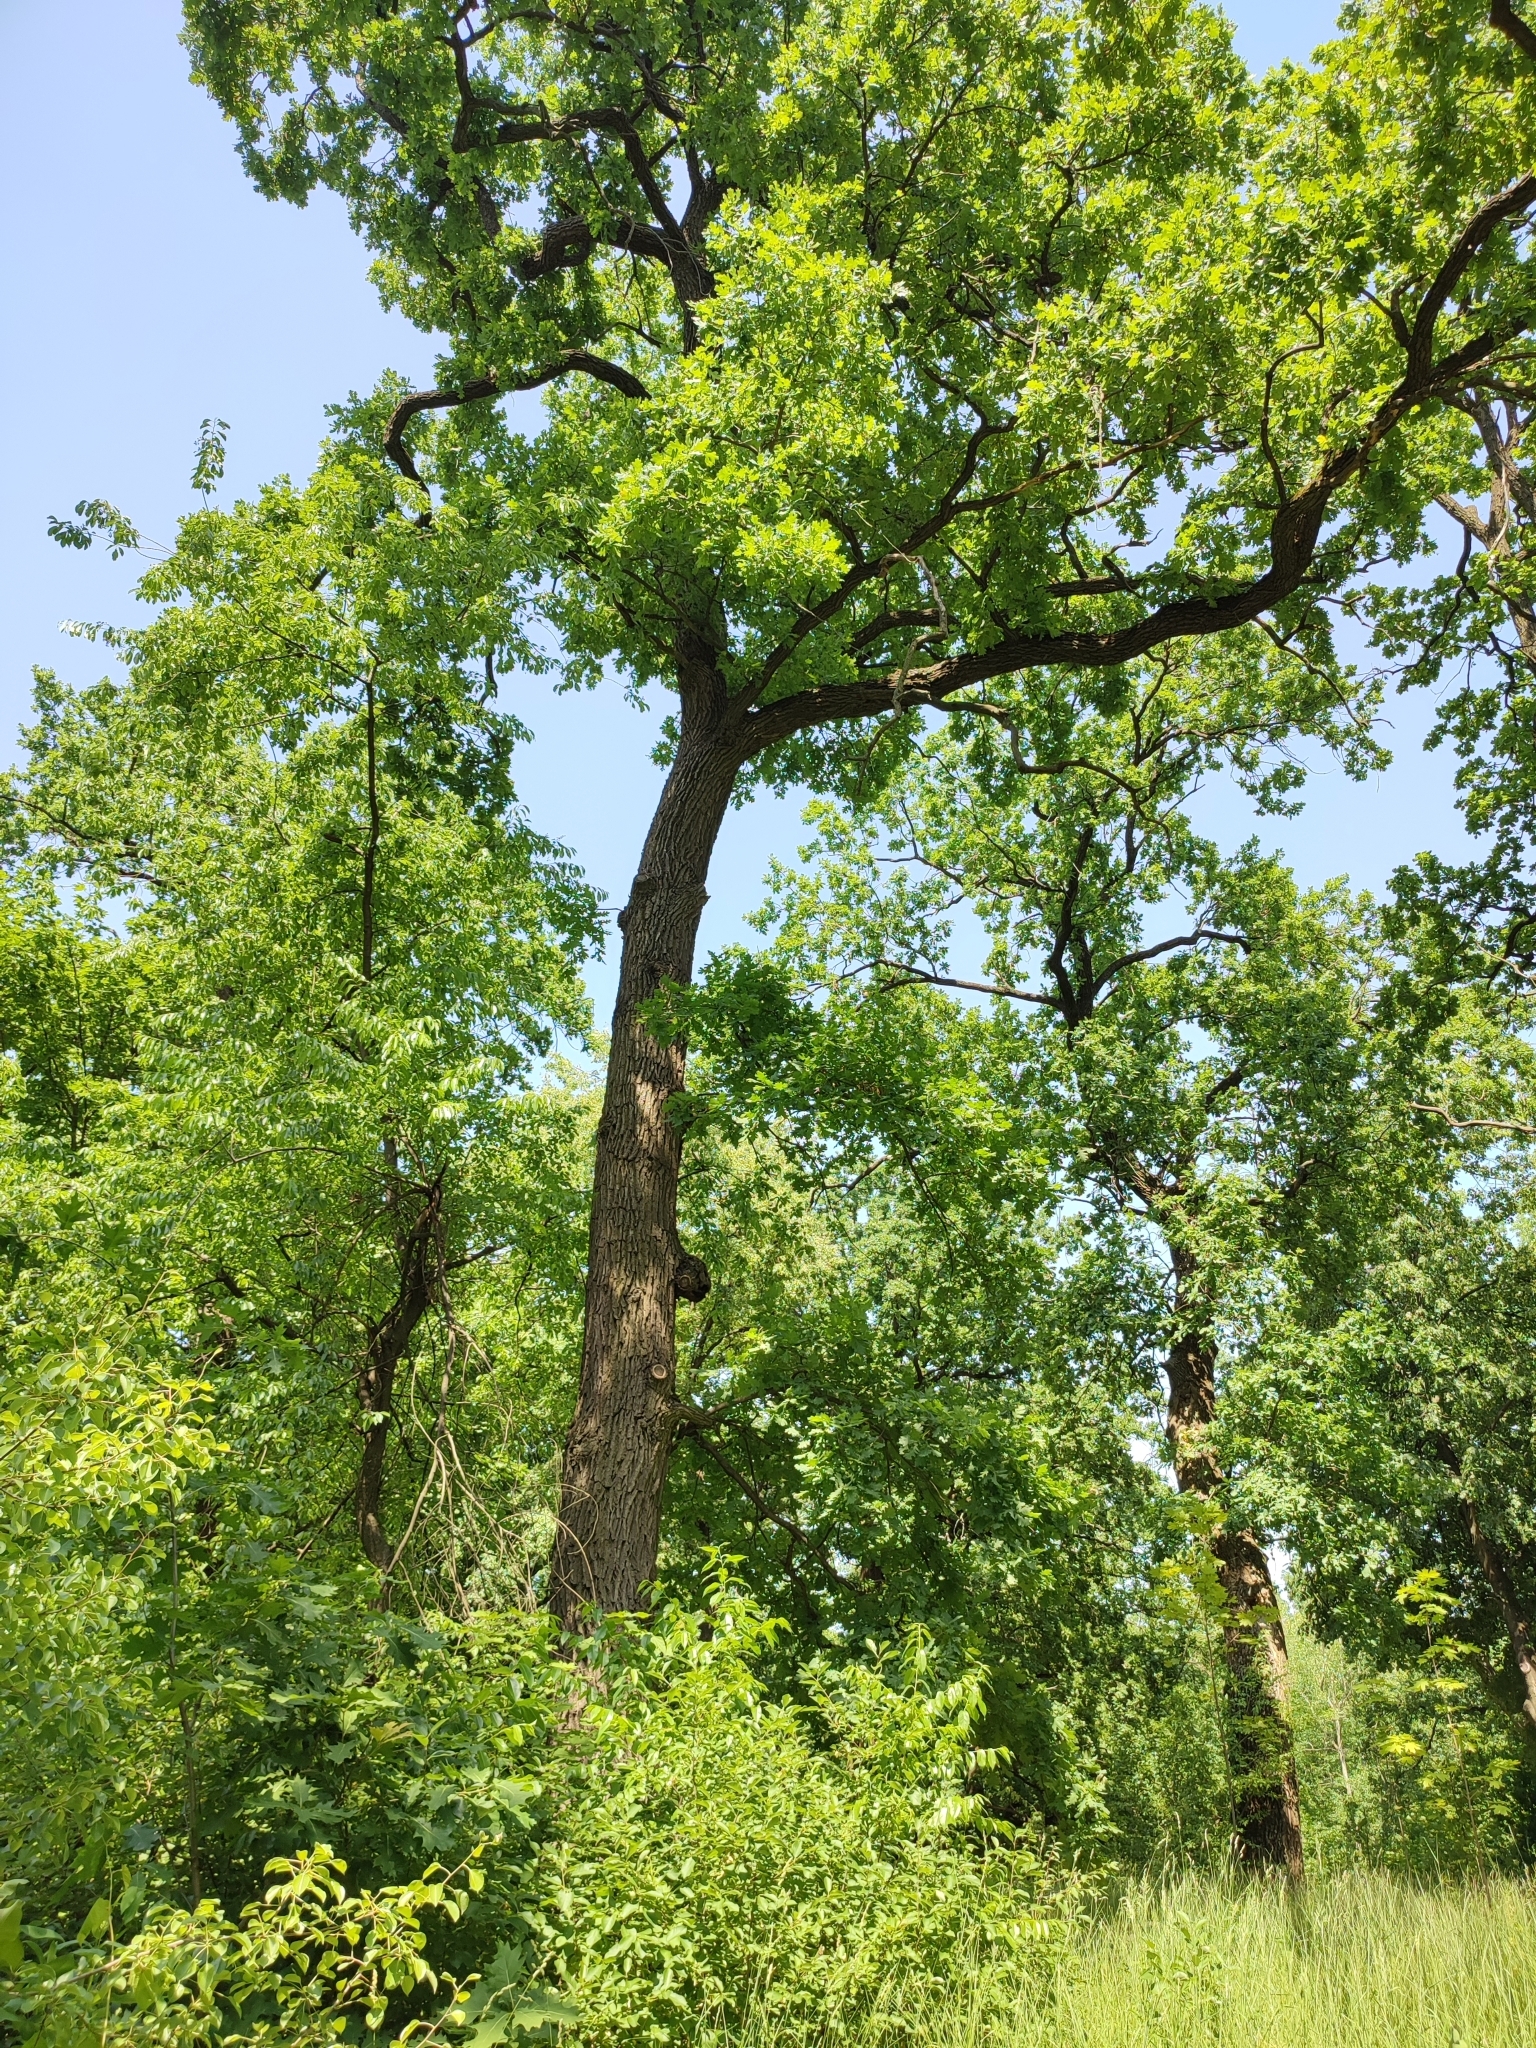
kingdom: Plantae
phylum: Tracheophyta
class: Magnoliopsida
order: Fagales
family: Fagaceae
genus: Quercus
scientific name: Quercus robur
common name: Pedunculate oak
